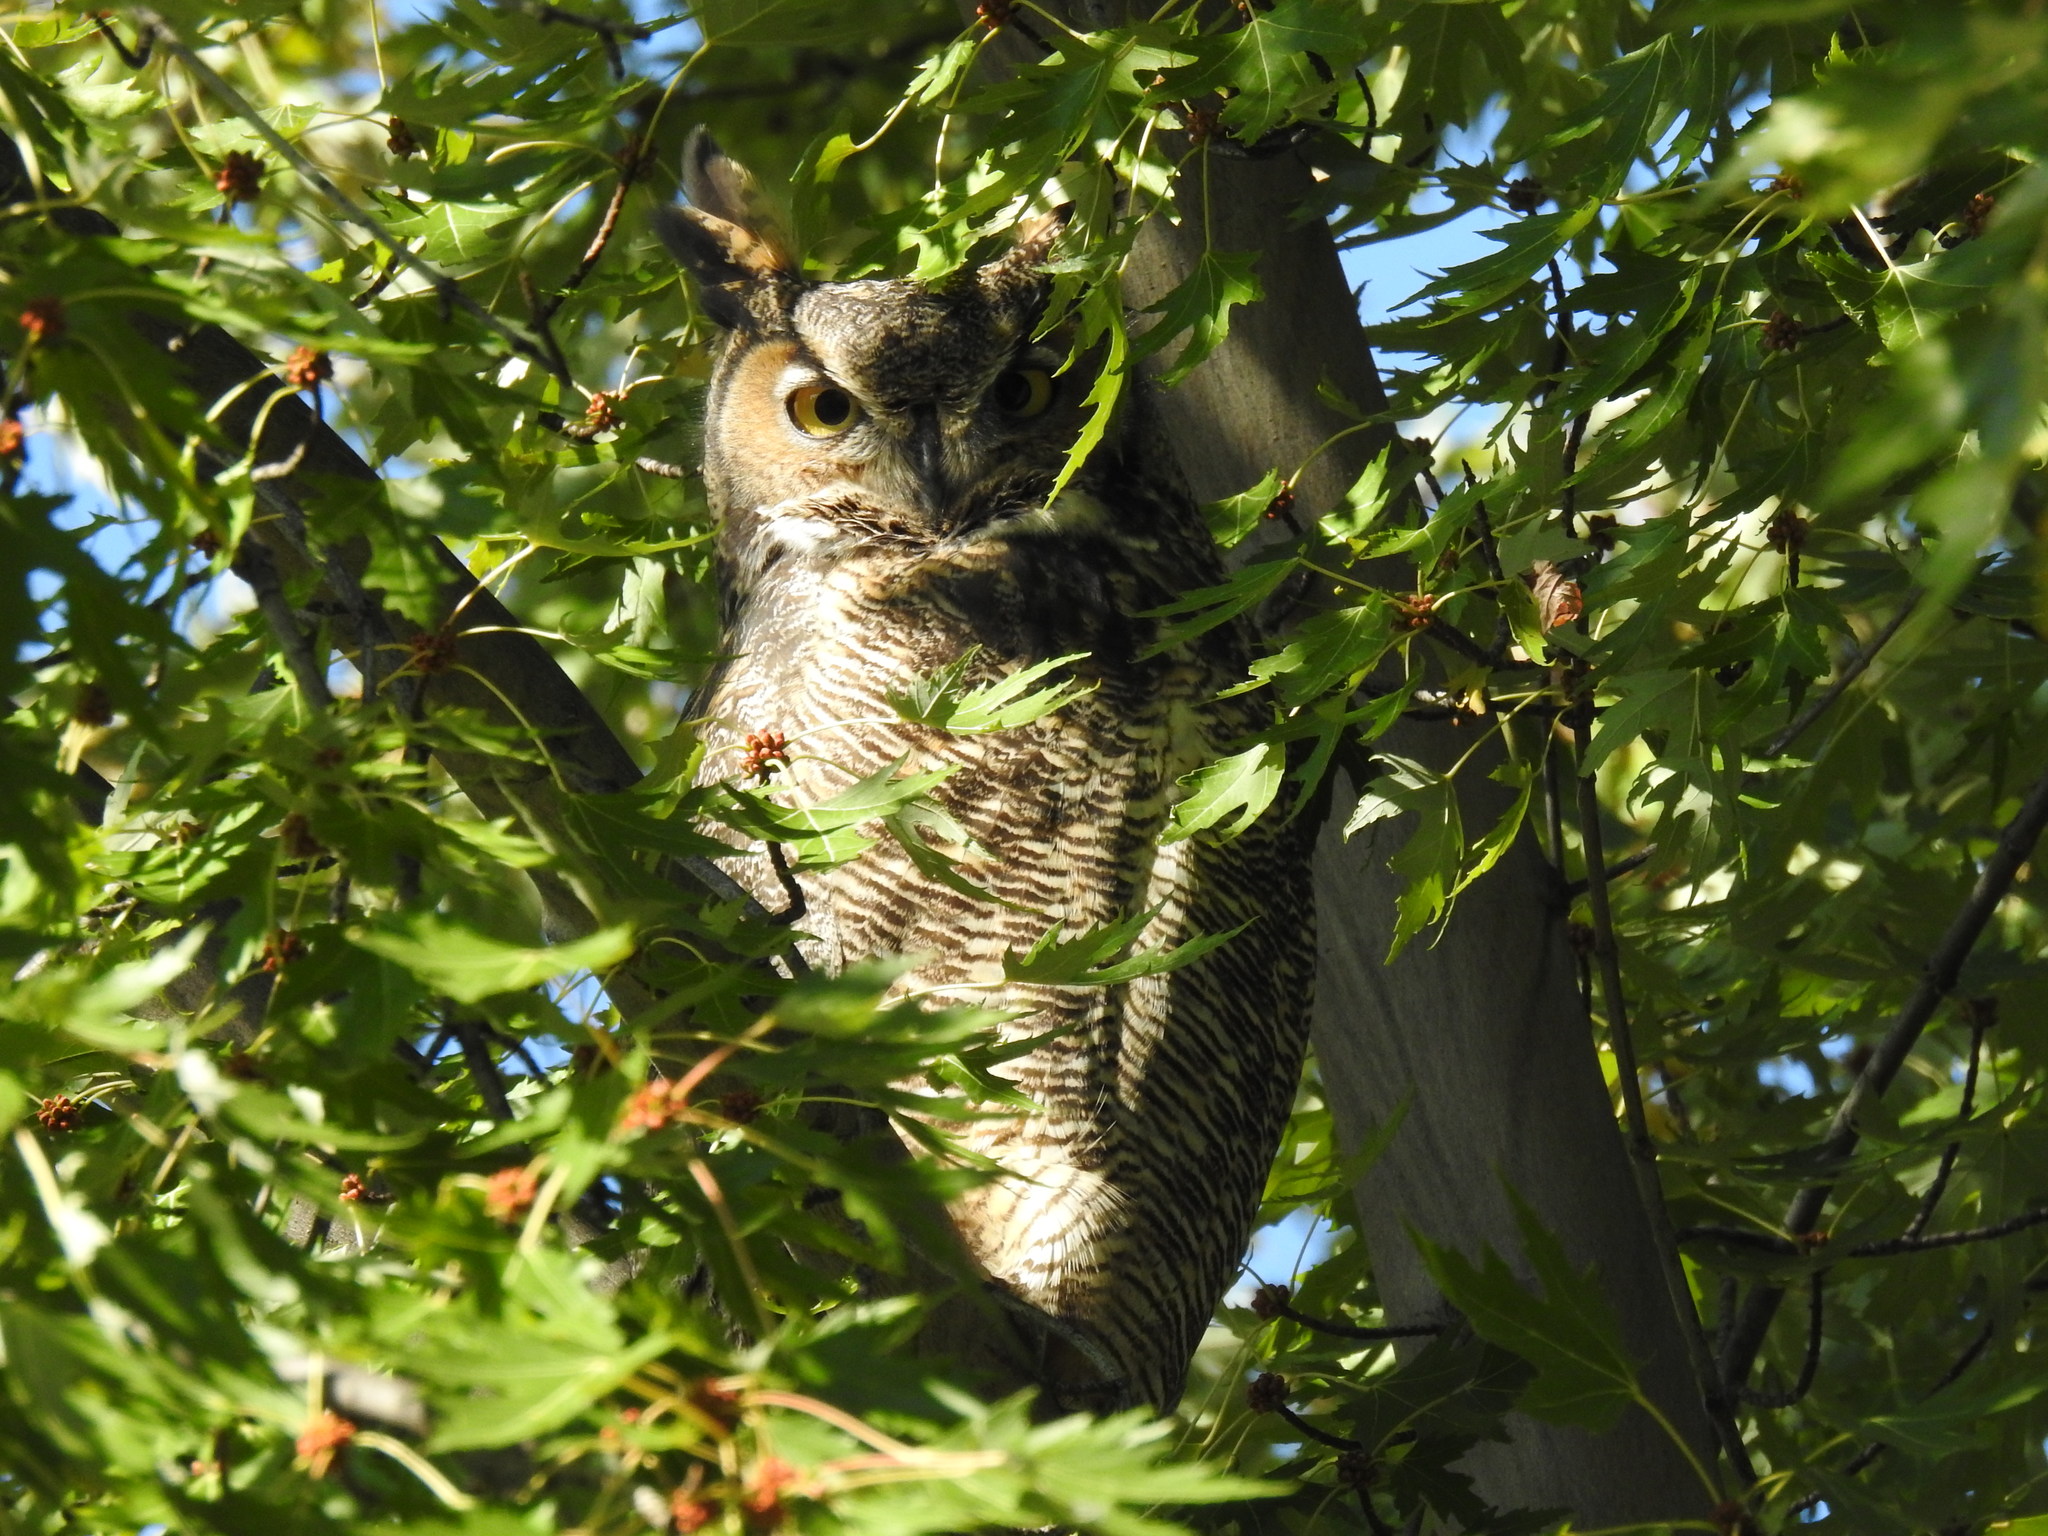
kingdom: Animalia
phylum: Chordata
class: Aves
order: Strigiformes
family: Strigidae
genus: Bubo
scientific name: Bubo virginianus
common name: Great horned owl
